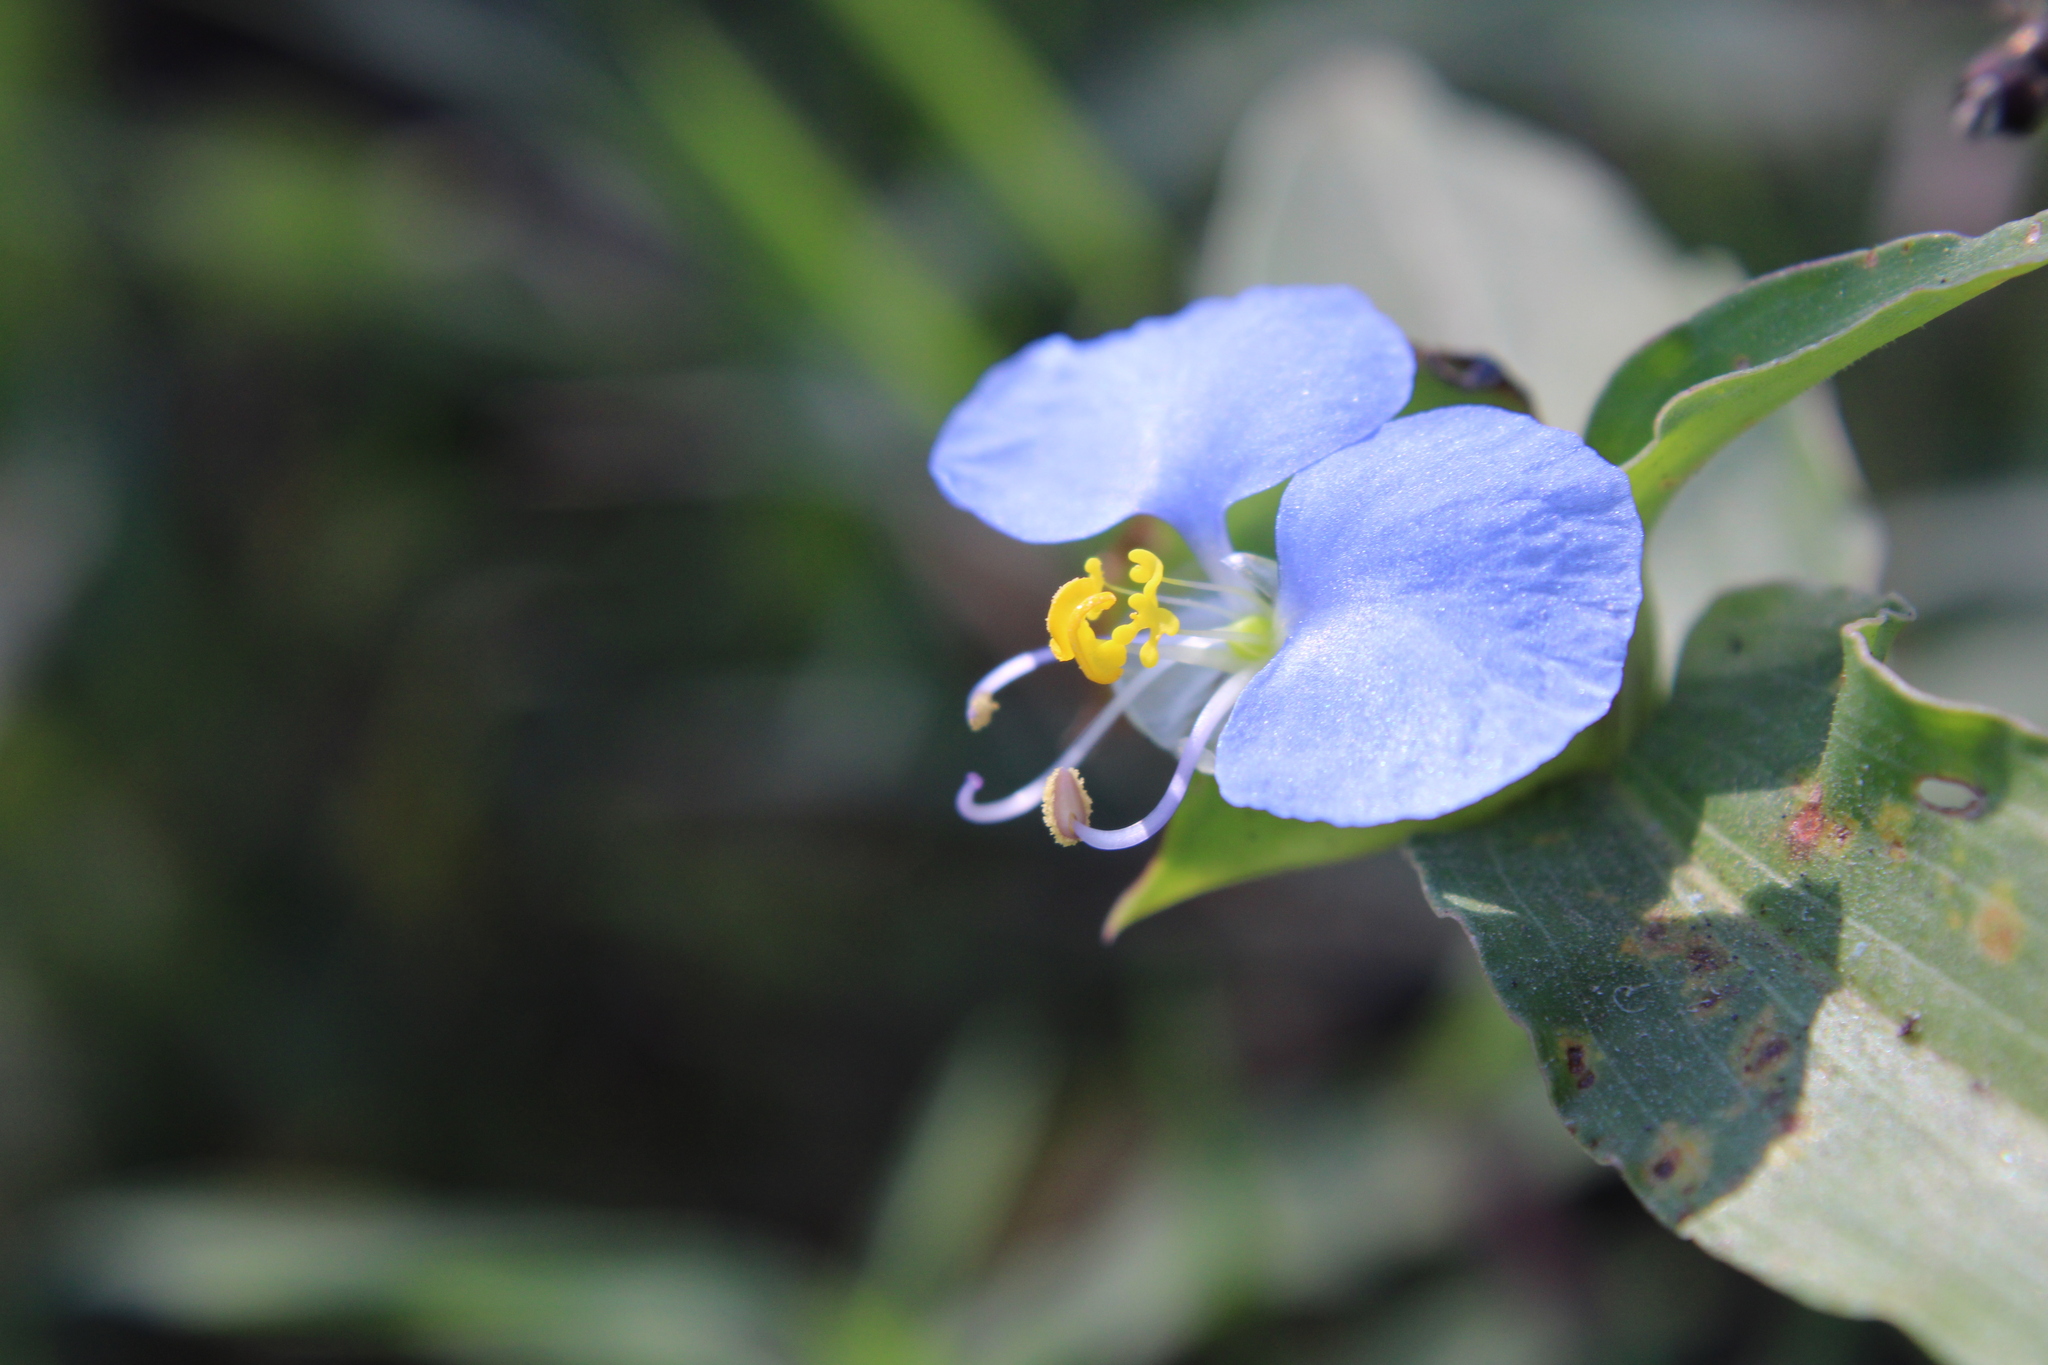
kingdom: Plantae
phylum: Tracheophyta
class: Liliopsida
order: Commelinales
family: Commelinaceae
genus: Commelina
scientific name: Commelina erecta
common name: Blousel blommetjie
